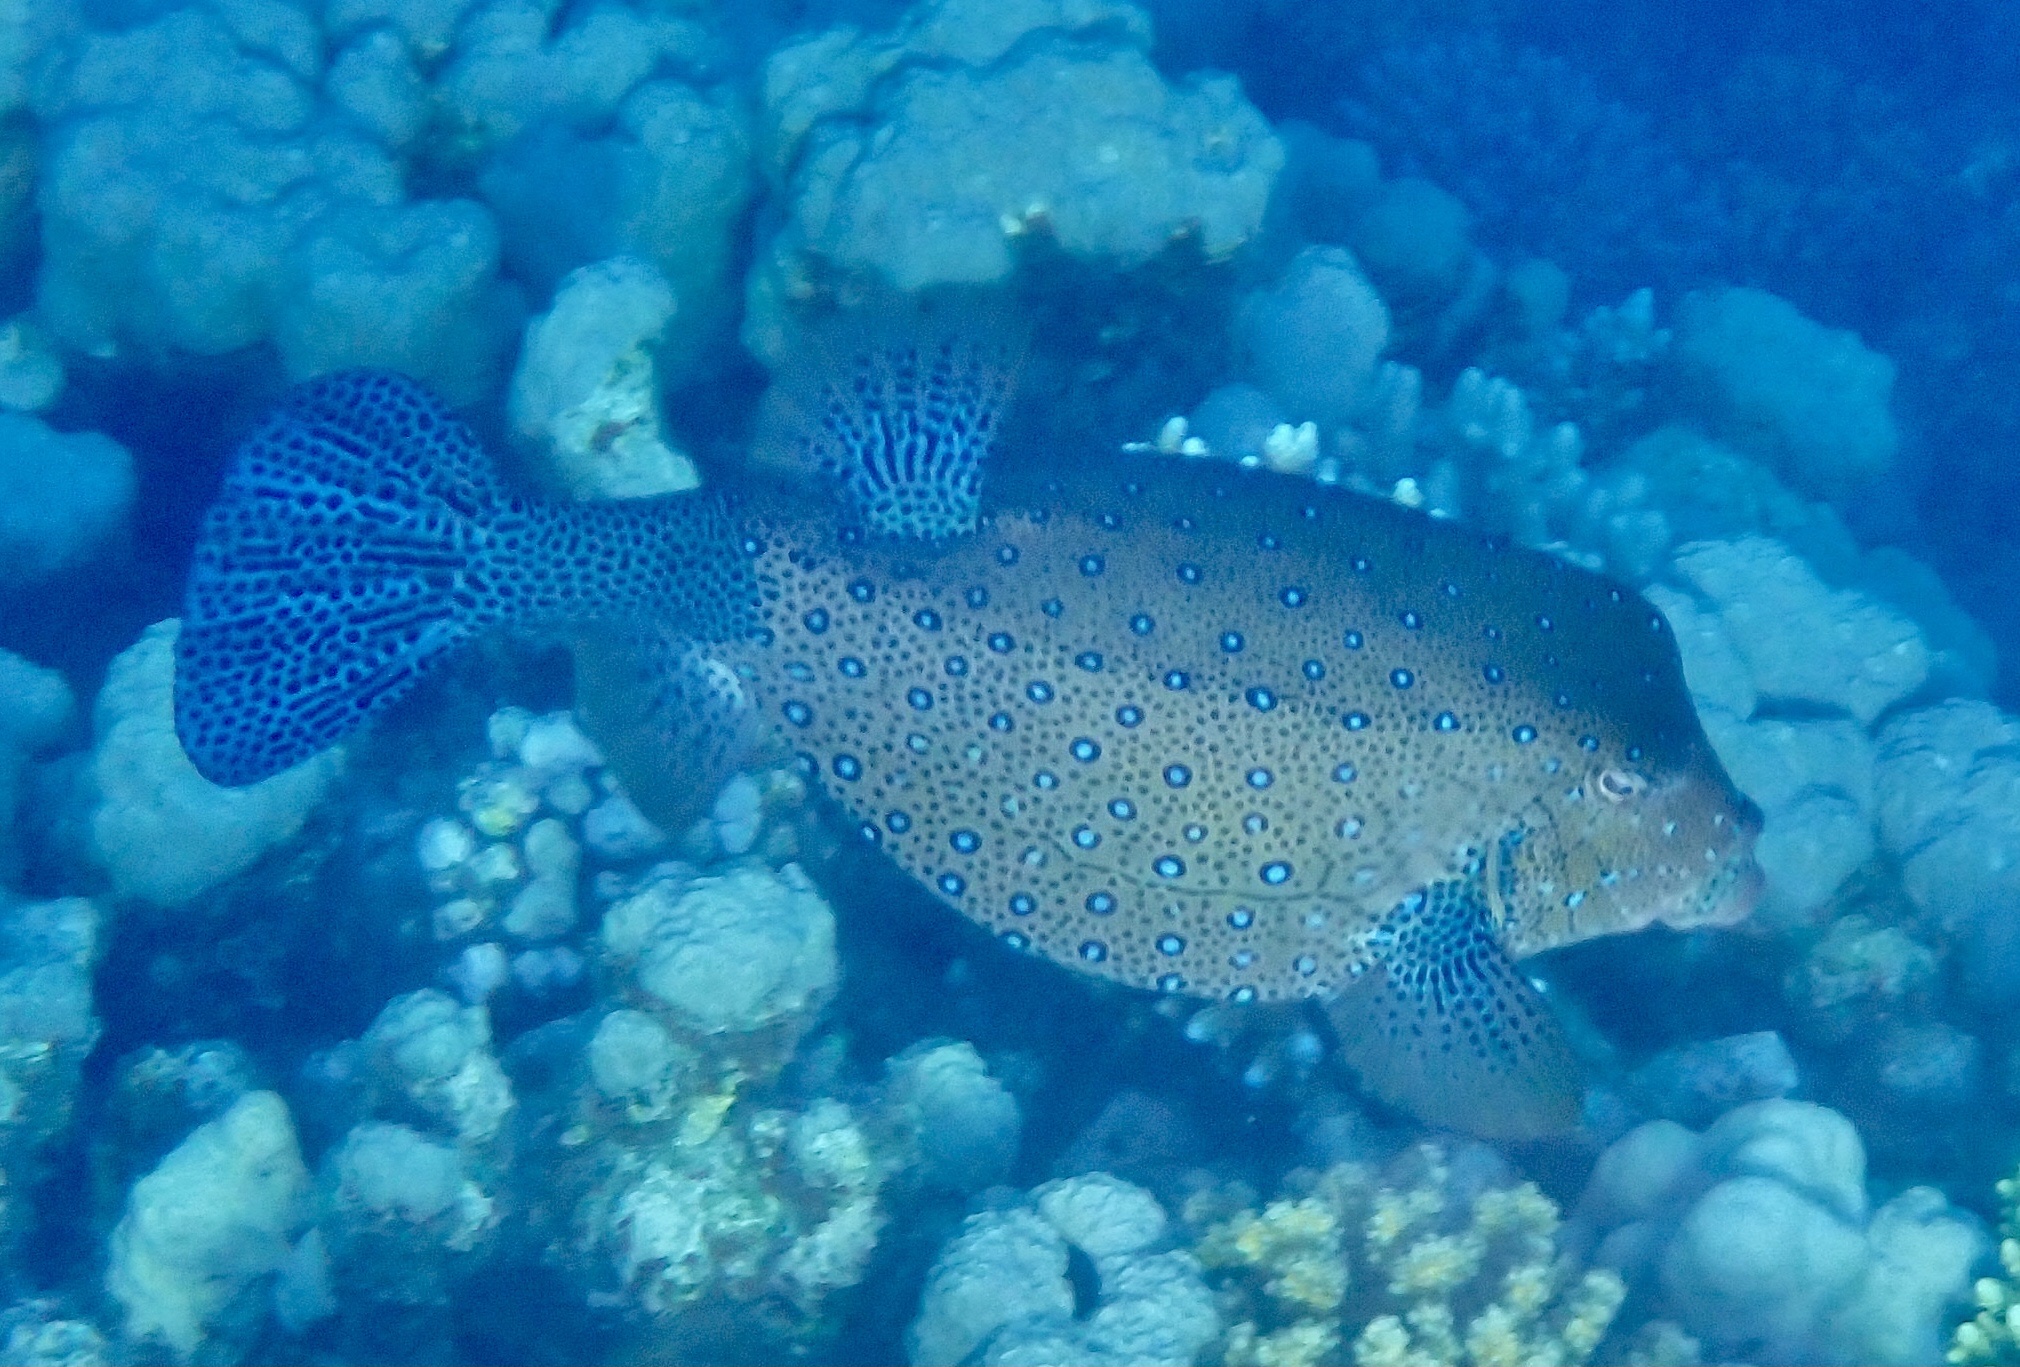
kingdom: Animalia
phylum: Chordata
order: Tetraodontiformes
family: Ostraciidae
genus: Ostracion
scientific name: Ostracion cubicus
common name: Cube trunkfish
